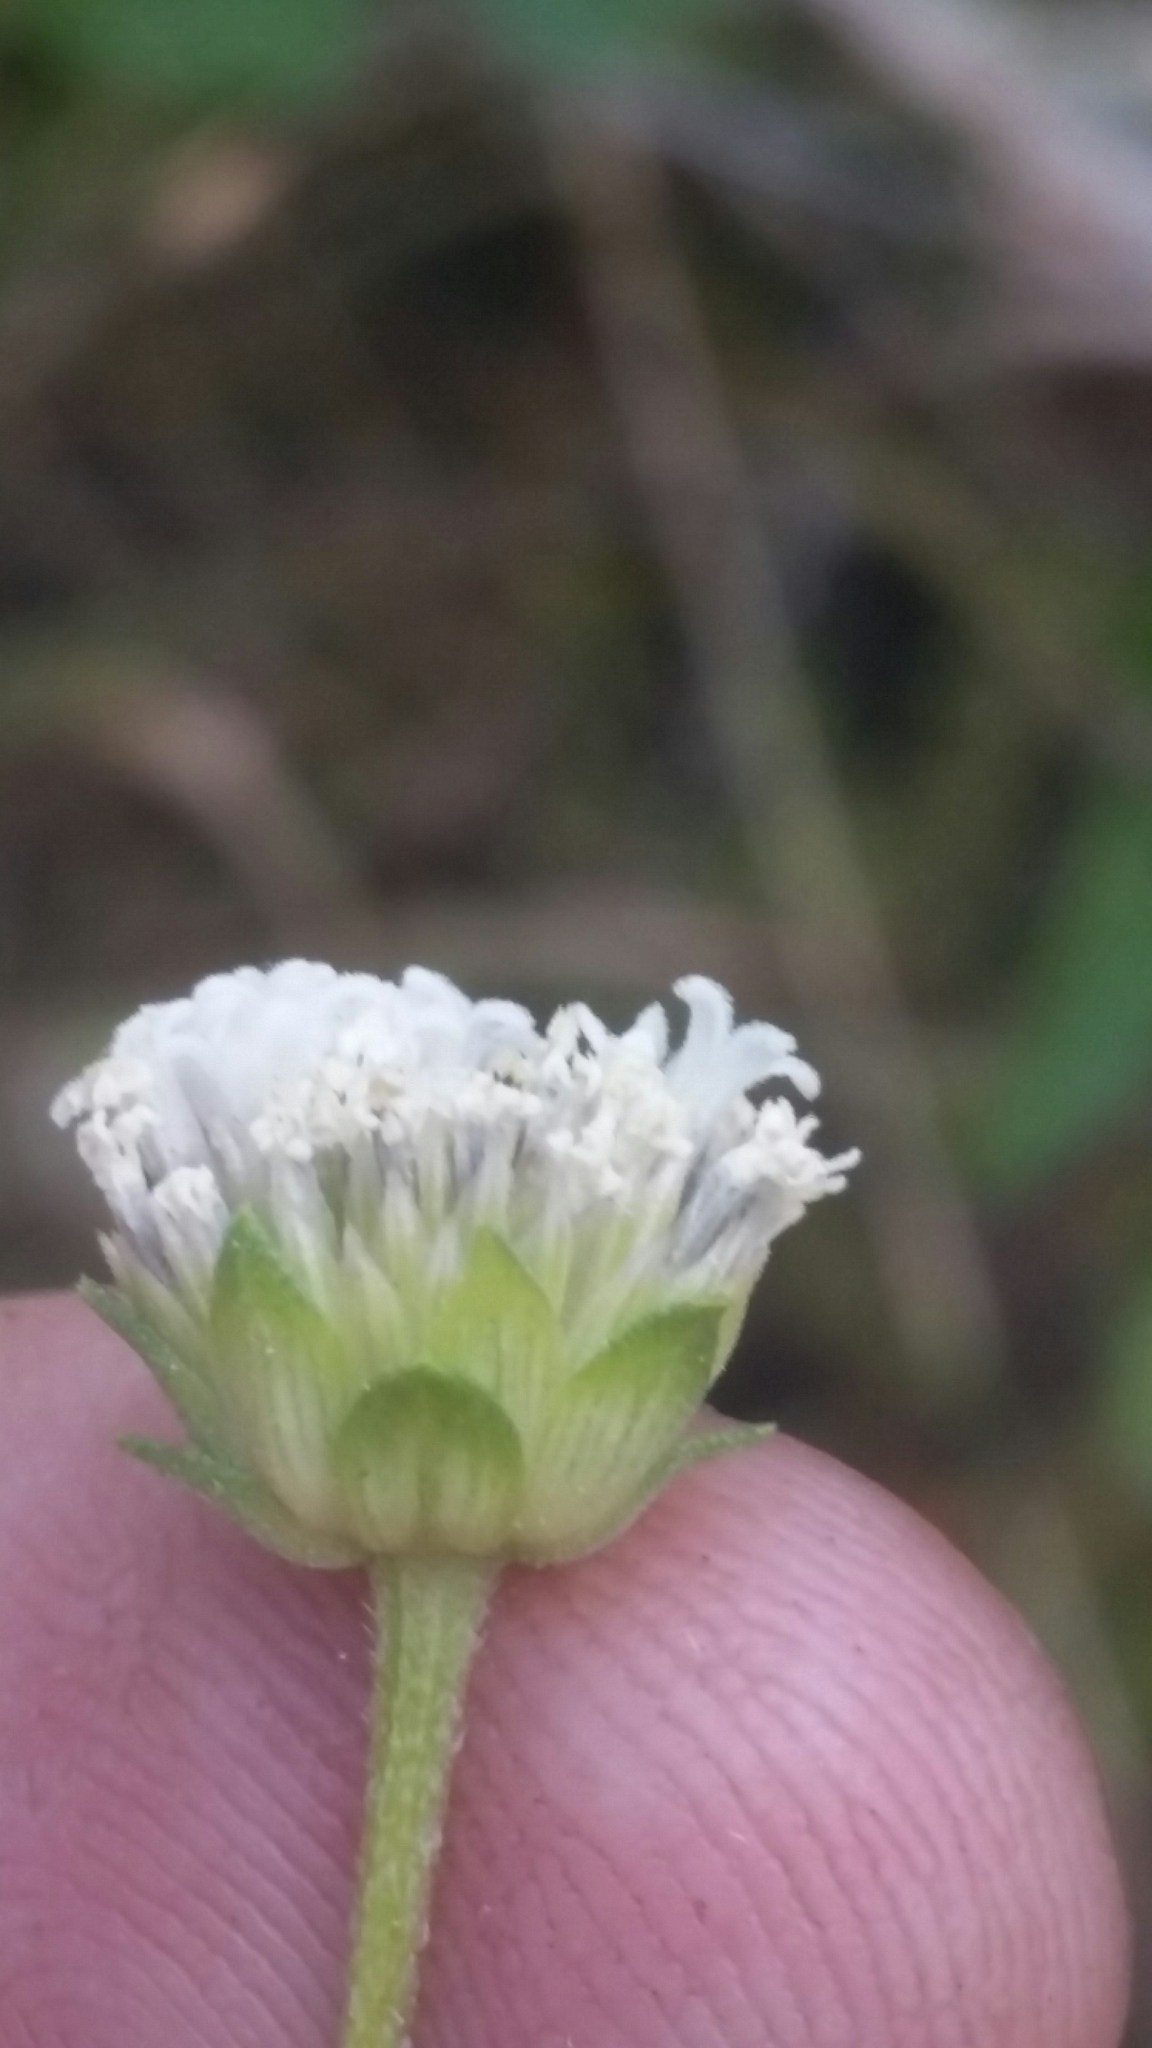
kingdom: Plantae
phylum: Tracheophyta
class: Magnoliopsida
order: Asterales
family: Asteraceae
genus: Melanthera
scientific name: Melanthera nivea
